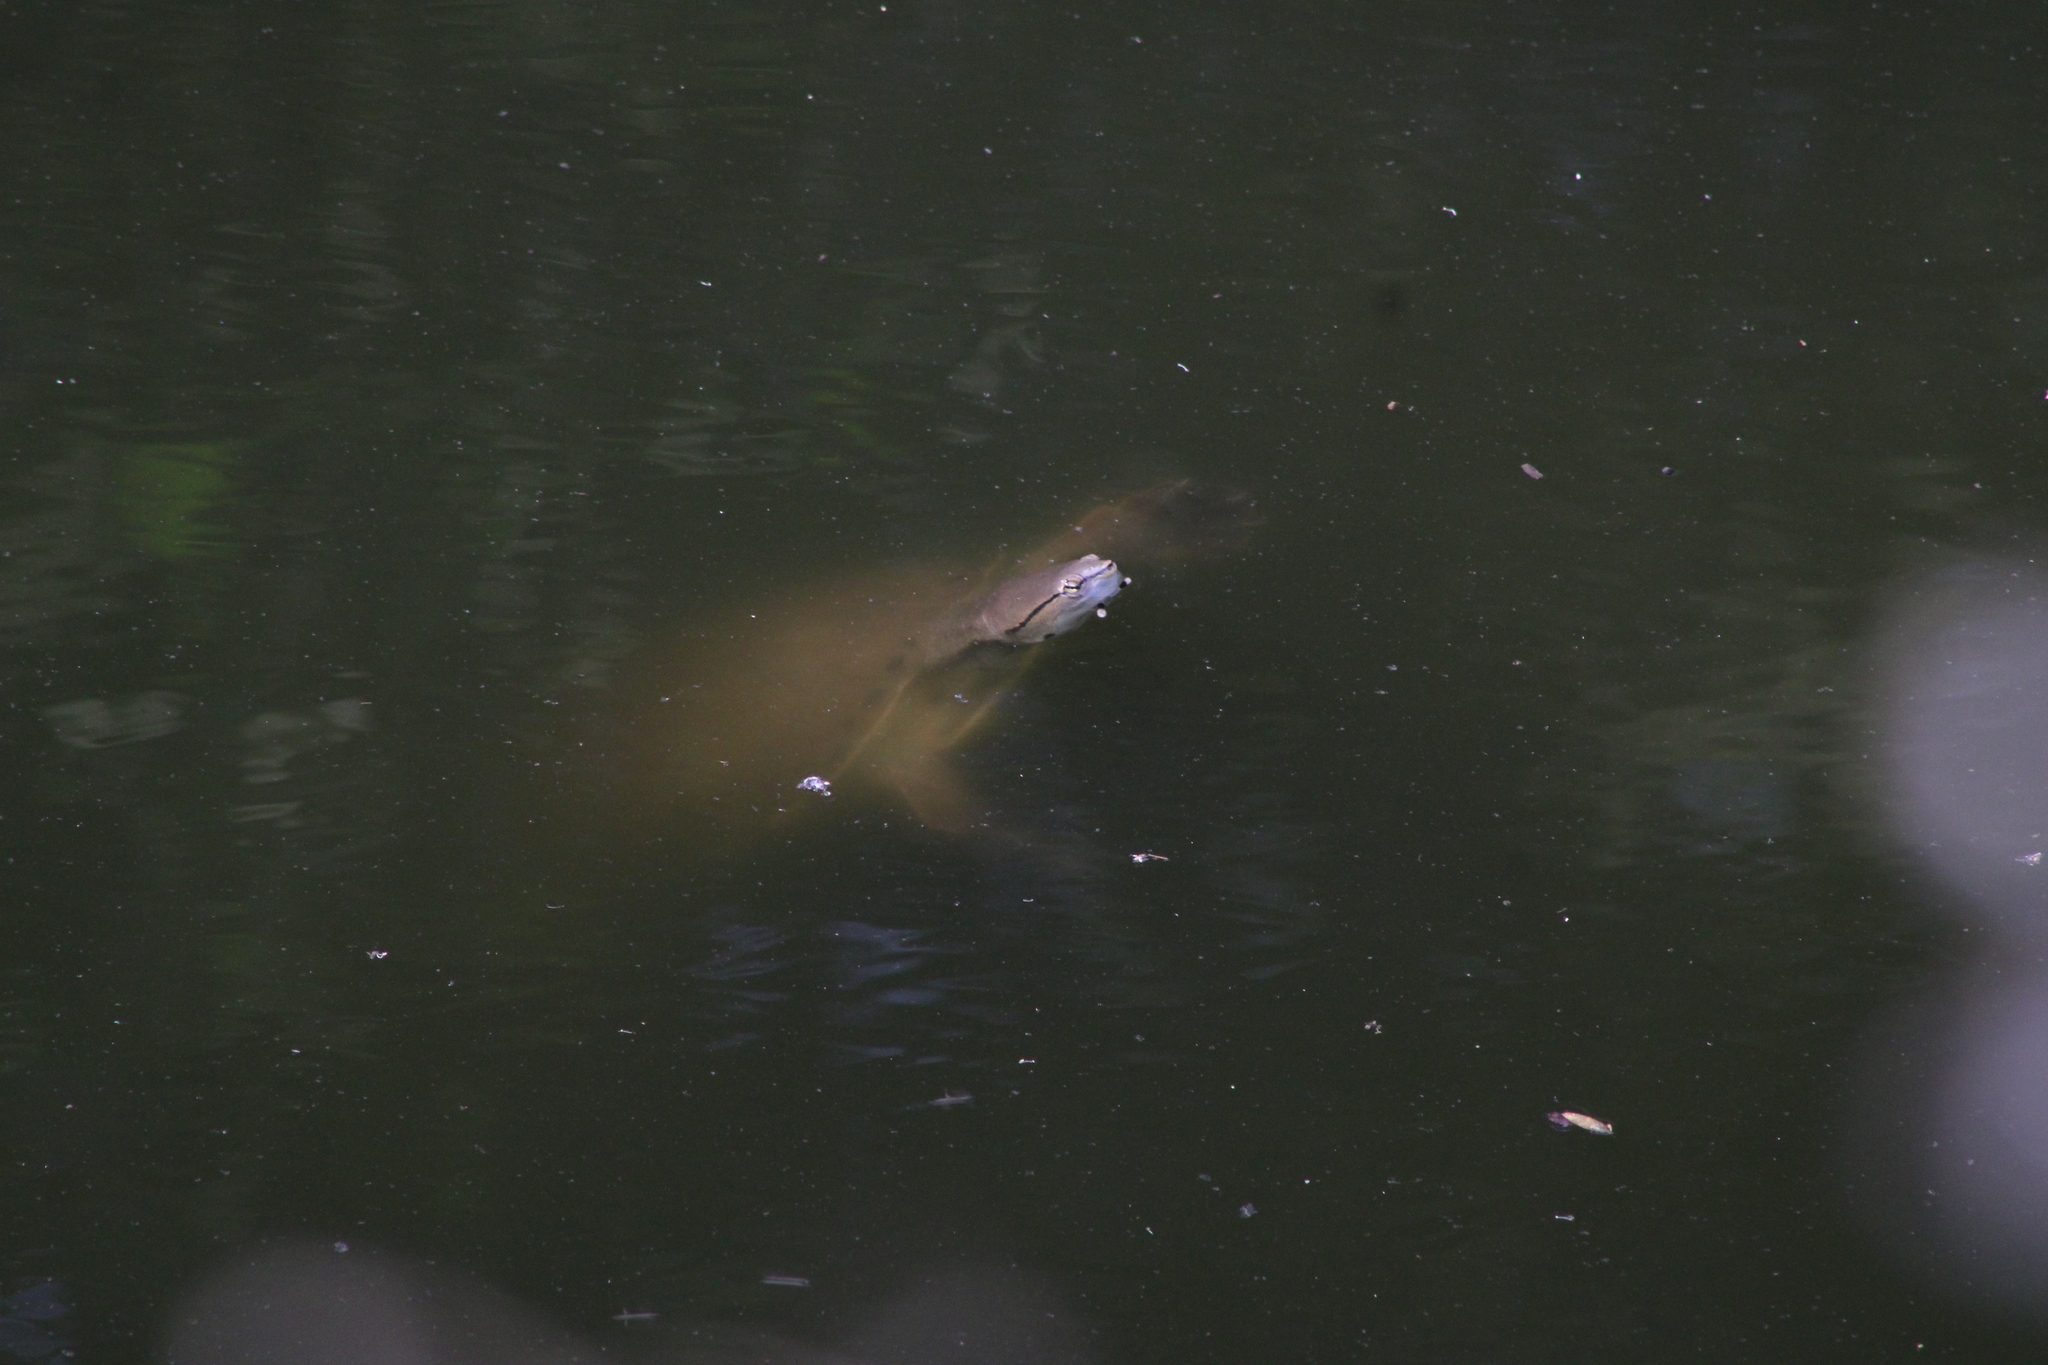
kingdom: Animalia
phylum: Chordata
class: Testudines
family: Chelidae
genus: Phrynops
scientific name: Phrynops hilarii
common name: Side-necked turtle of saint hillaire
